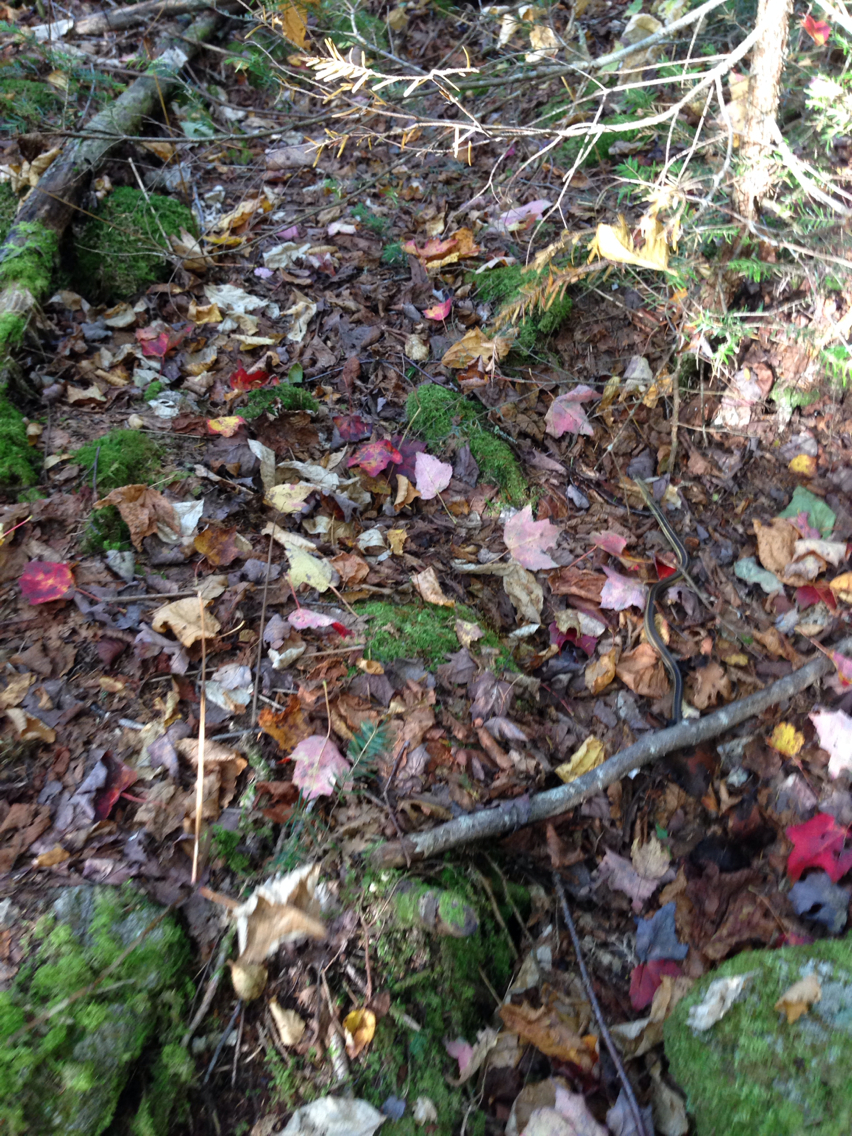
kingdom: Animalia
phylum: Chordata
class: Squamata
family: Colubridae
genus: Thamnophis
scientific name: Thamnophis sirtalis
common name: Common garter snake
